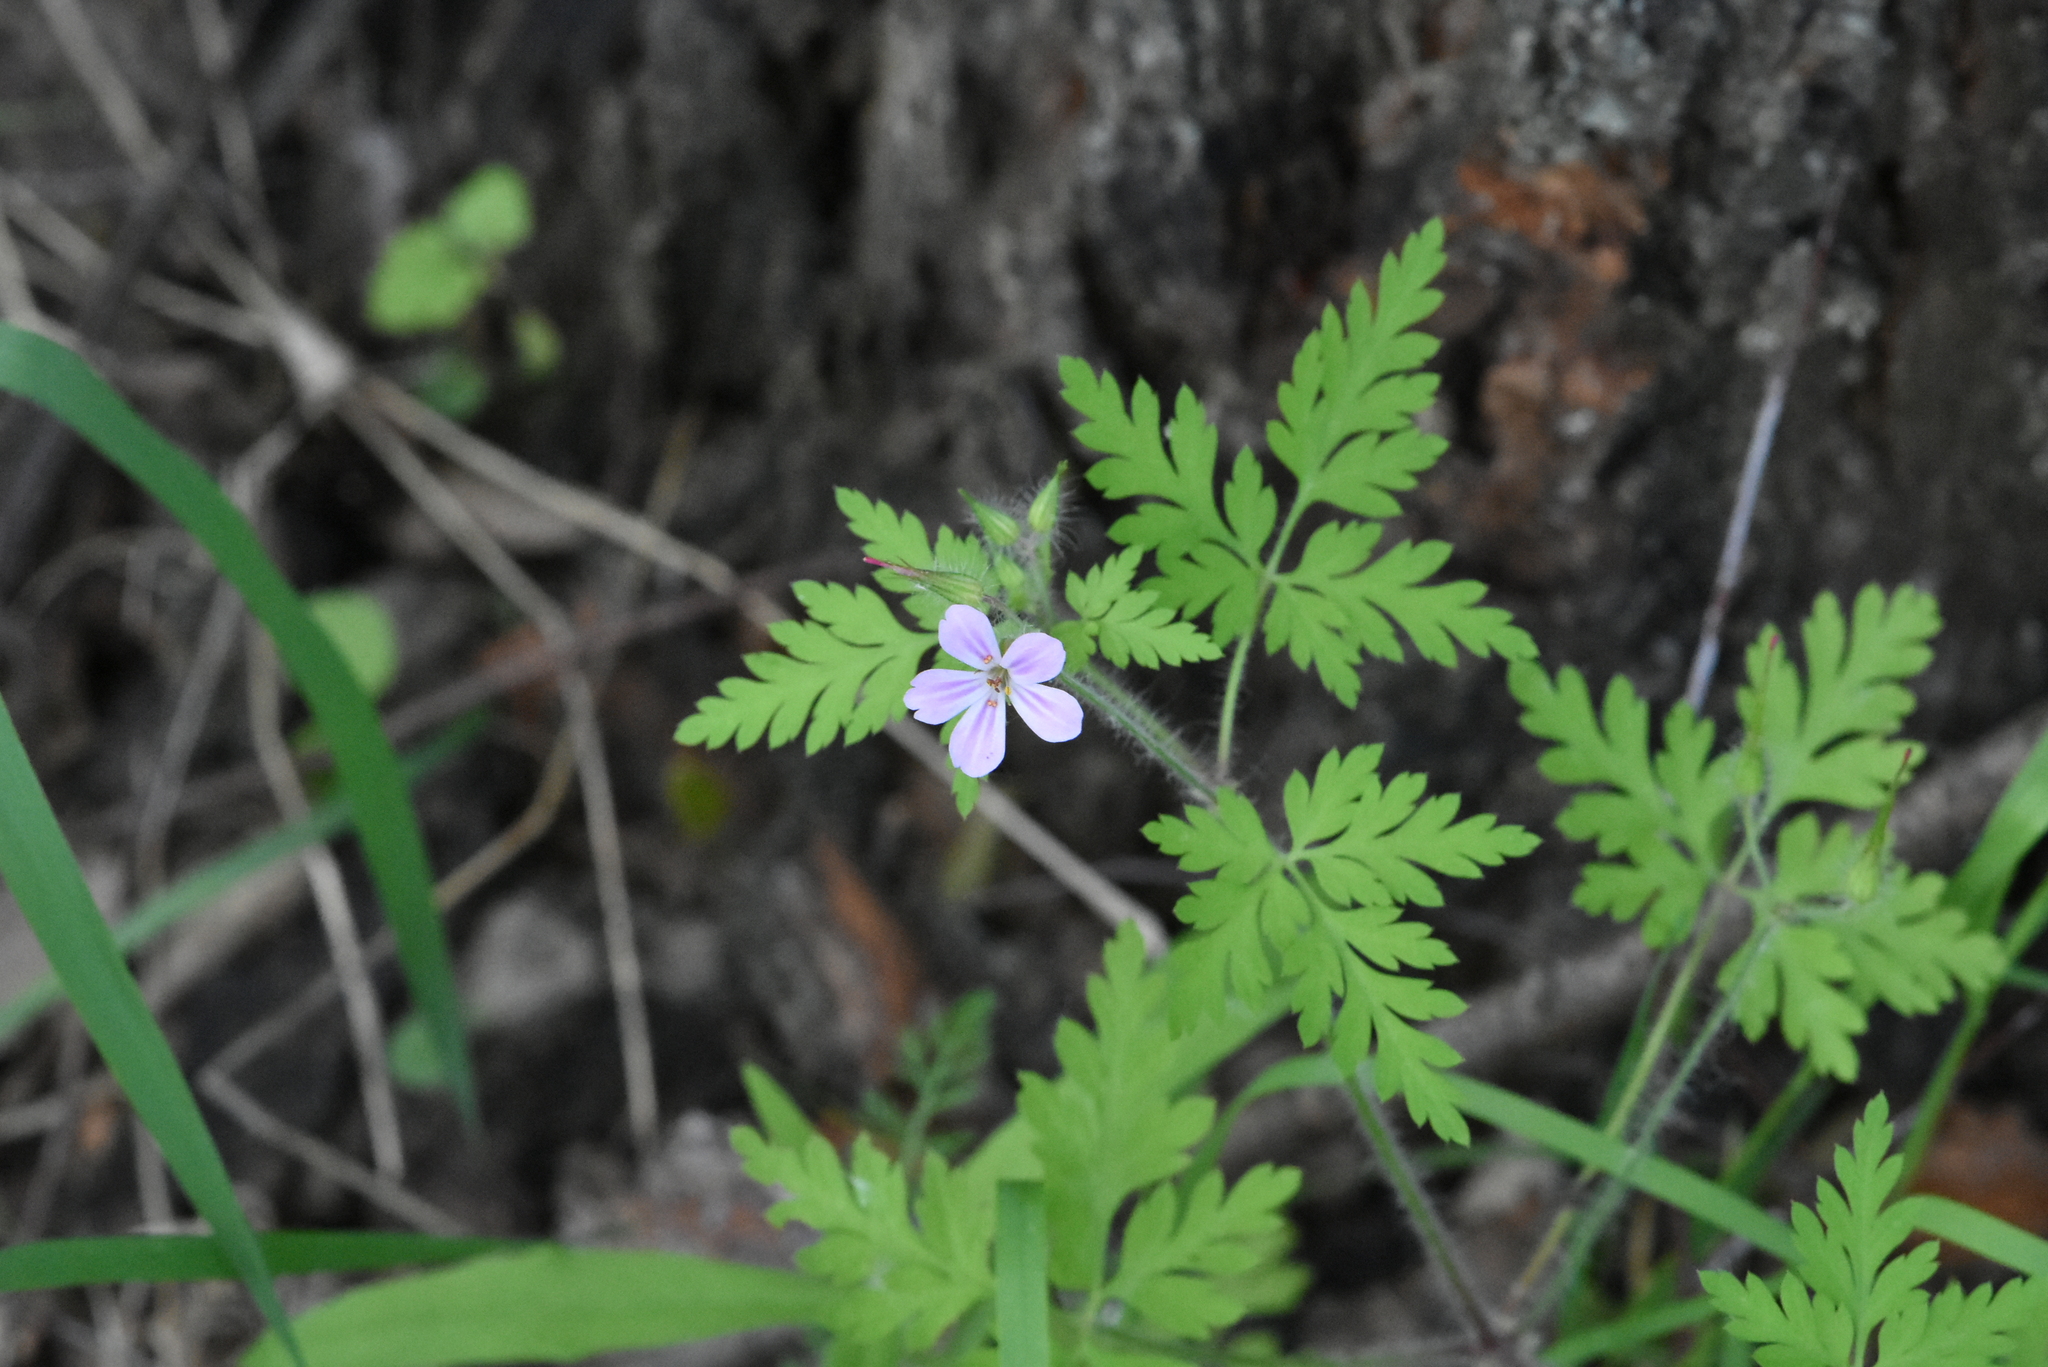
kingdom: Plantae
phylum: Tracheophyta
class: Magnoliopsida
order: Geraniales
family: Geraniaceae
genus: Geranium
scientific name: Geranium robertianum
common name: Herb-robert
